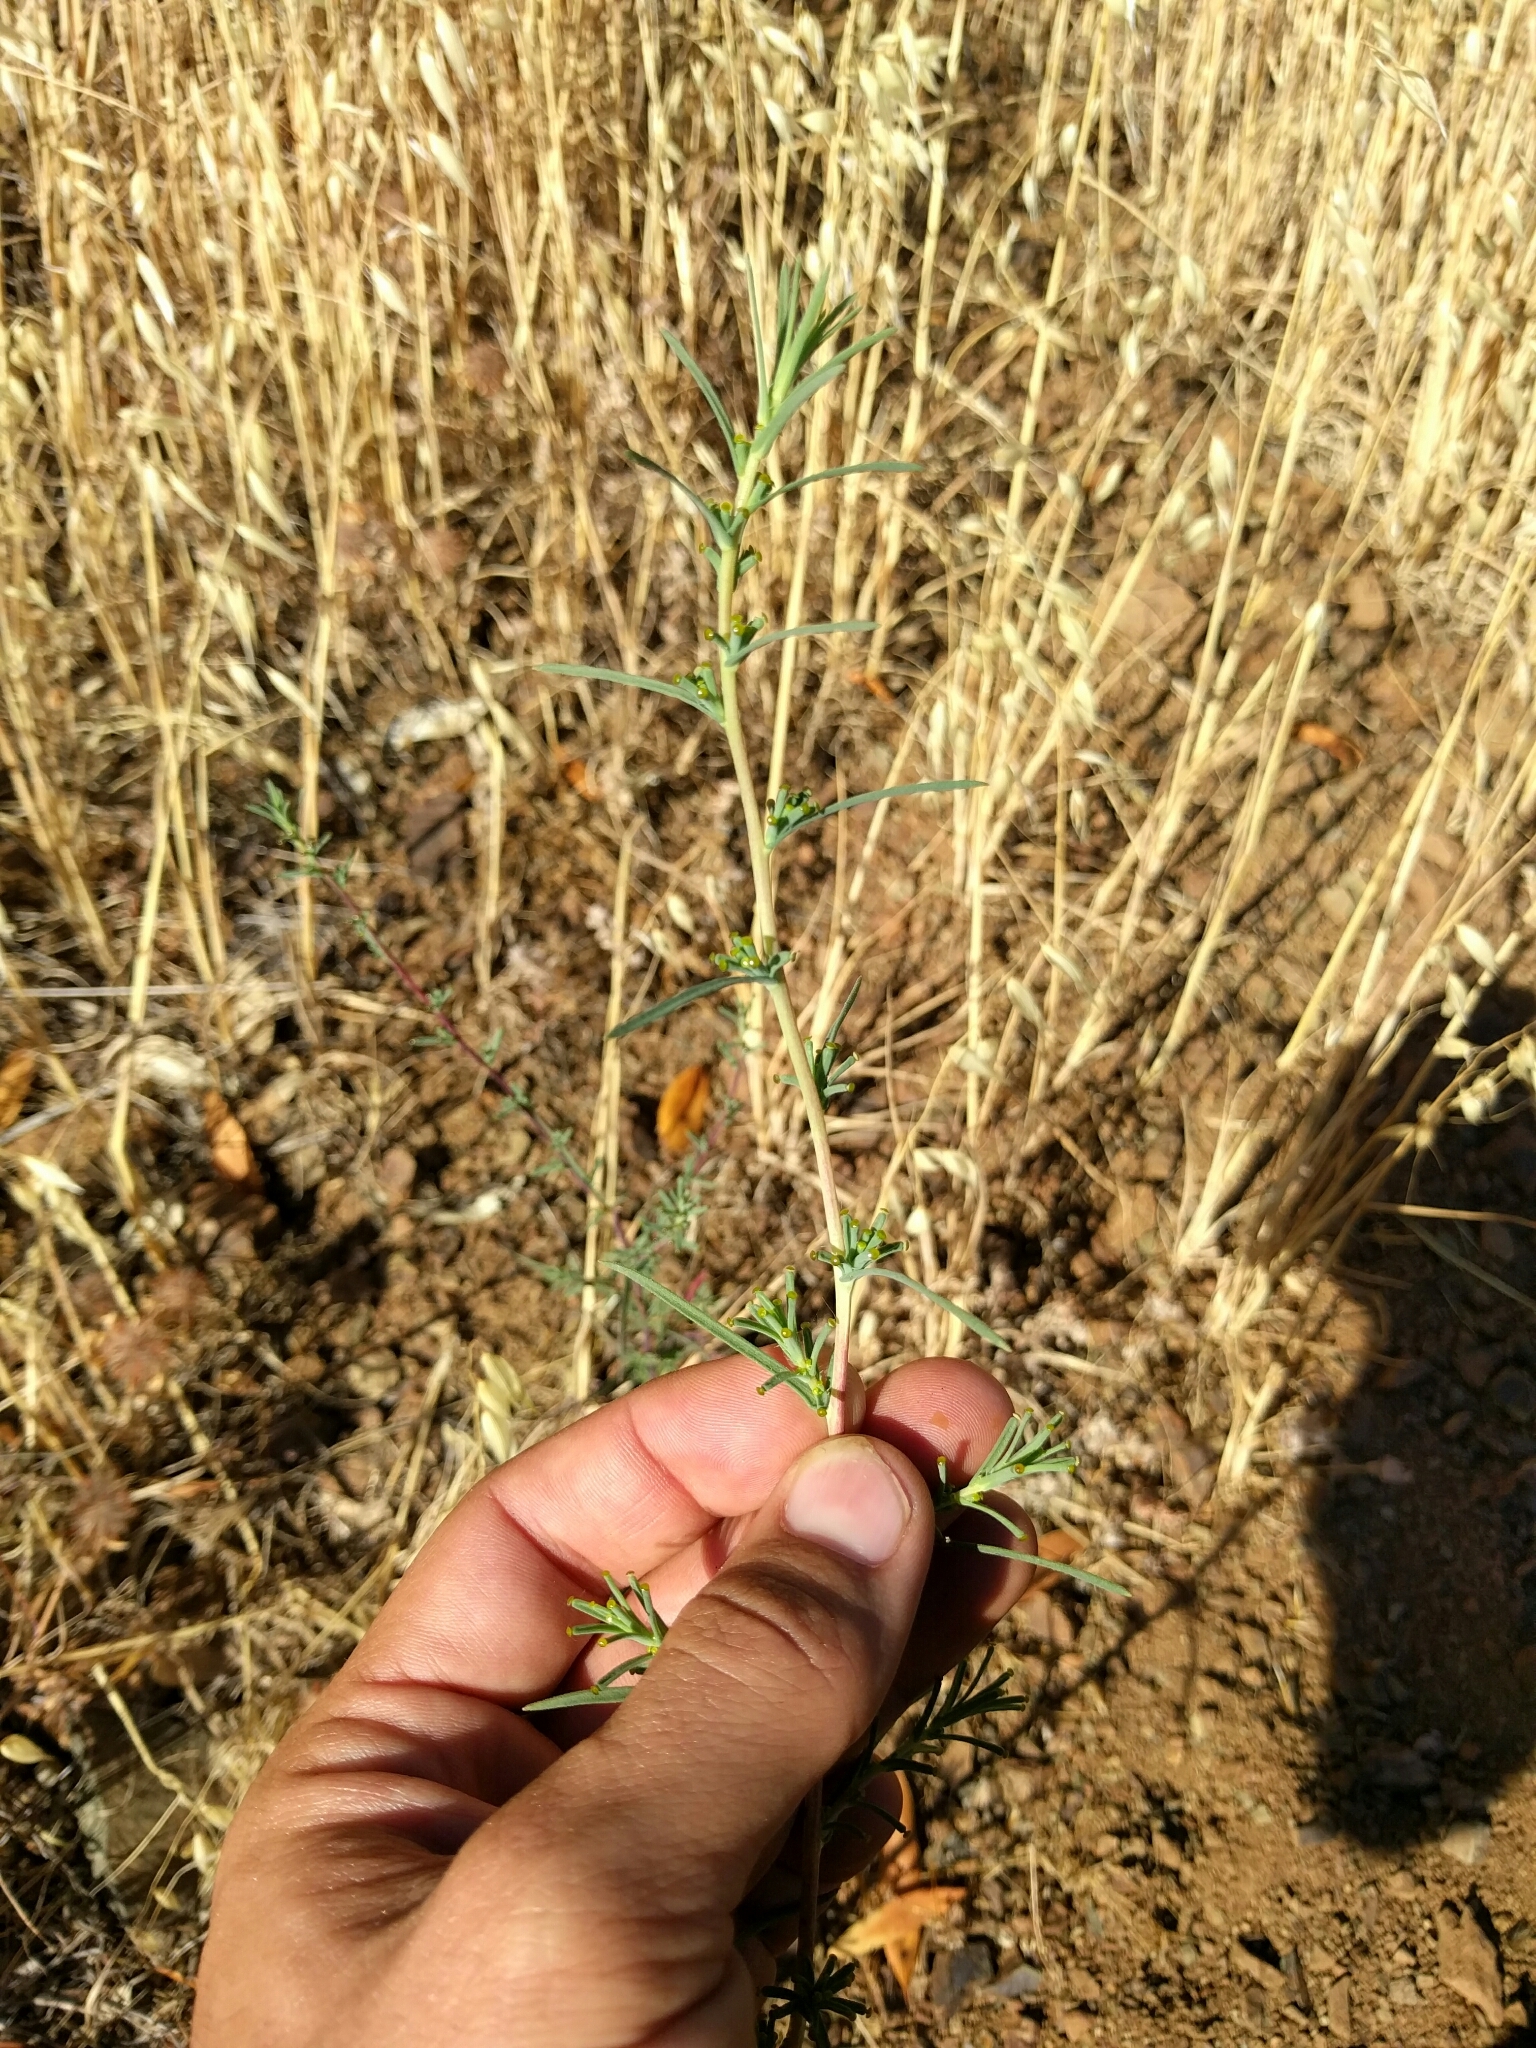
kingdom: Plantae
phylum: Tracheophyta
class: Magnoliopsida
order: Asterales
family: Asteraceae
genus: Calycadenia
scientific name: Calycadenia truncata
